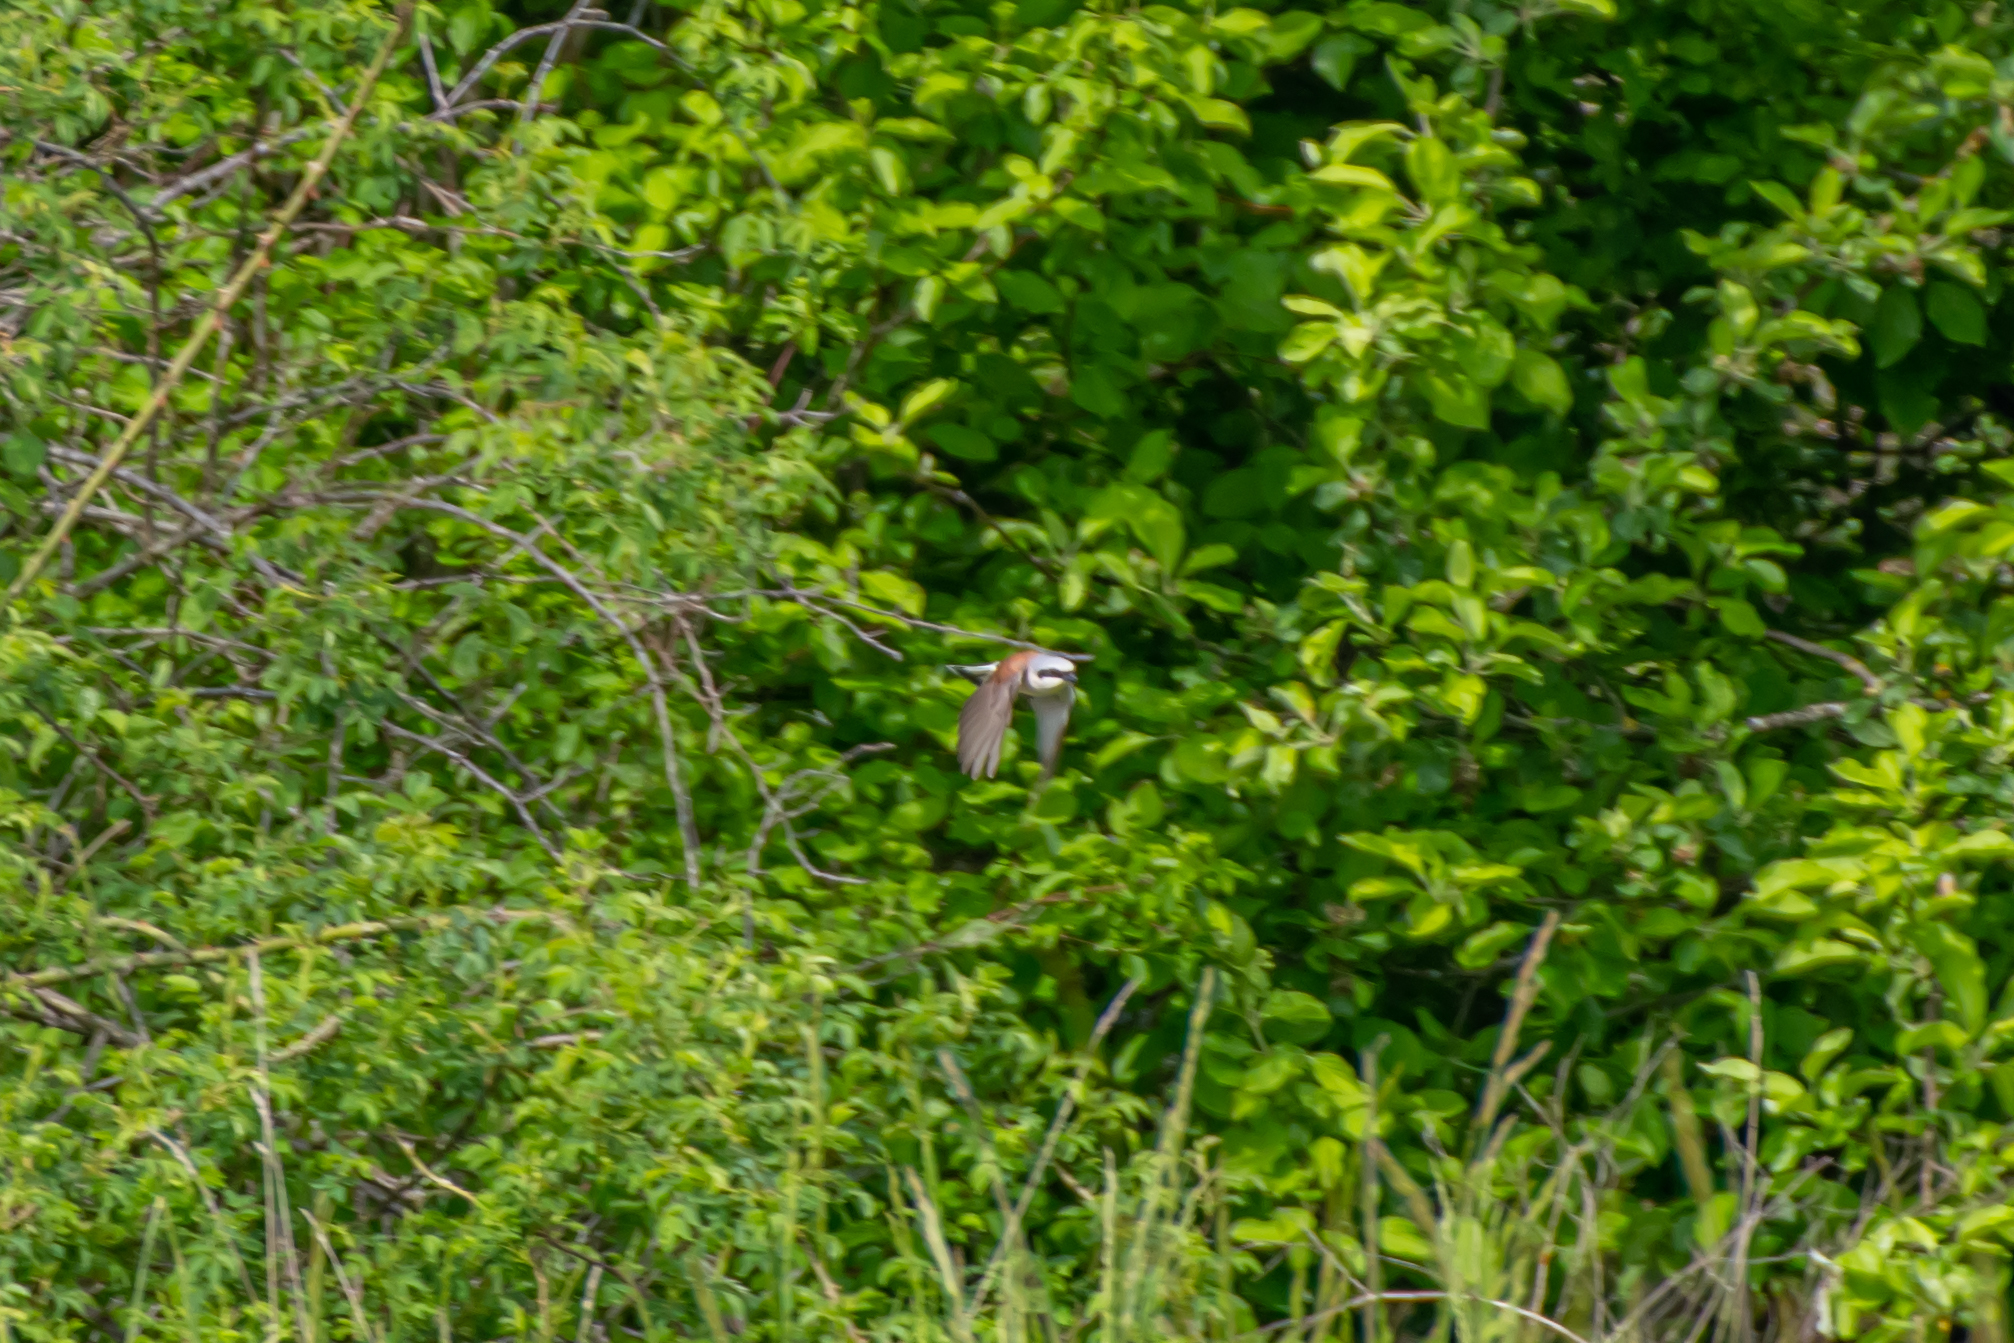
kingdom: Animalia
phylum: Chordata
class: Aves
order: Passeriformes
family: Laniidae
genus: Lanius
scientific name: Lanius collurio
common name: Red-backed shrike
